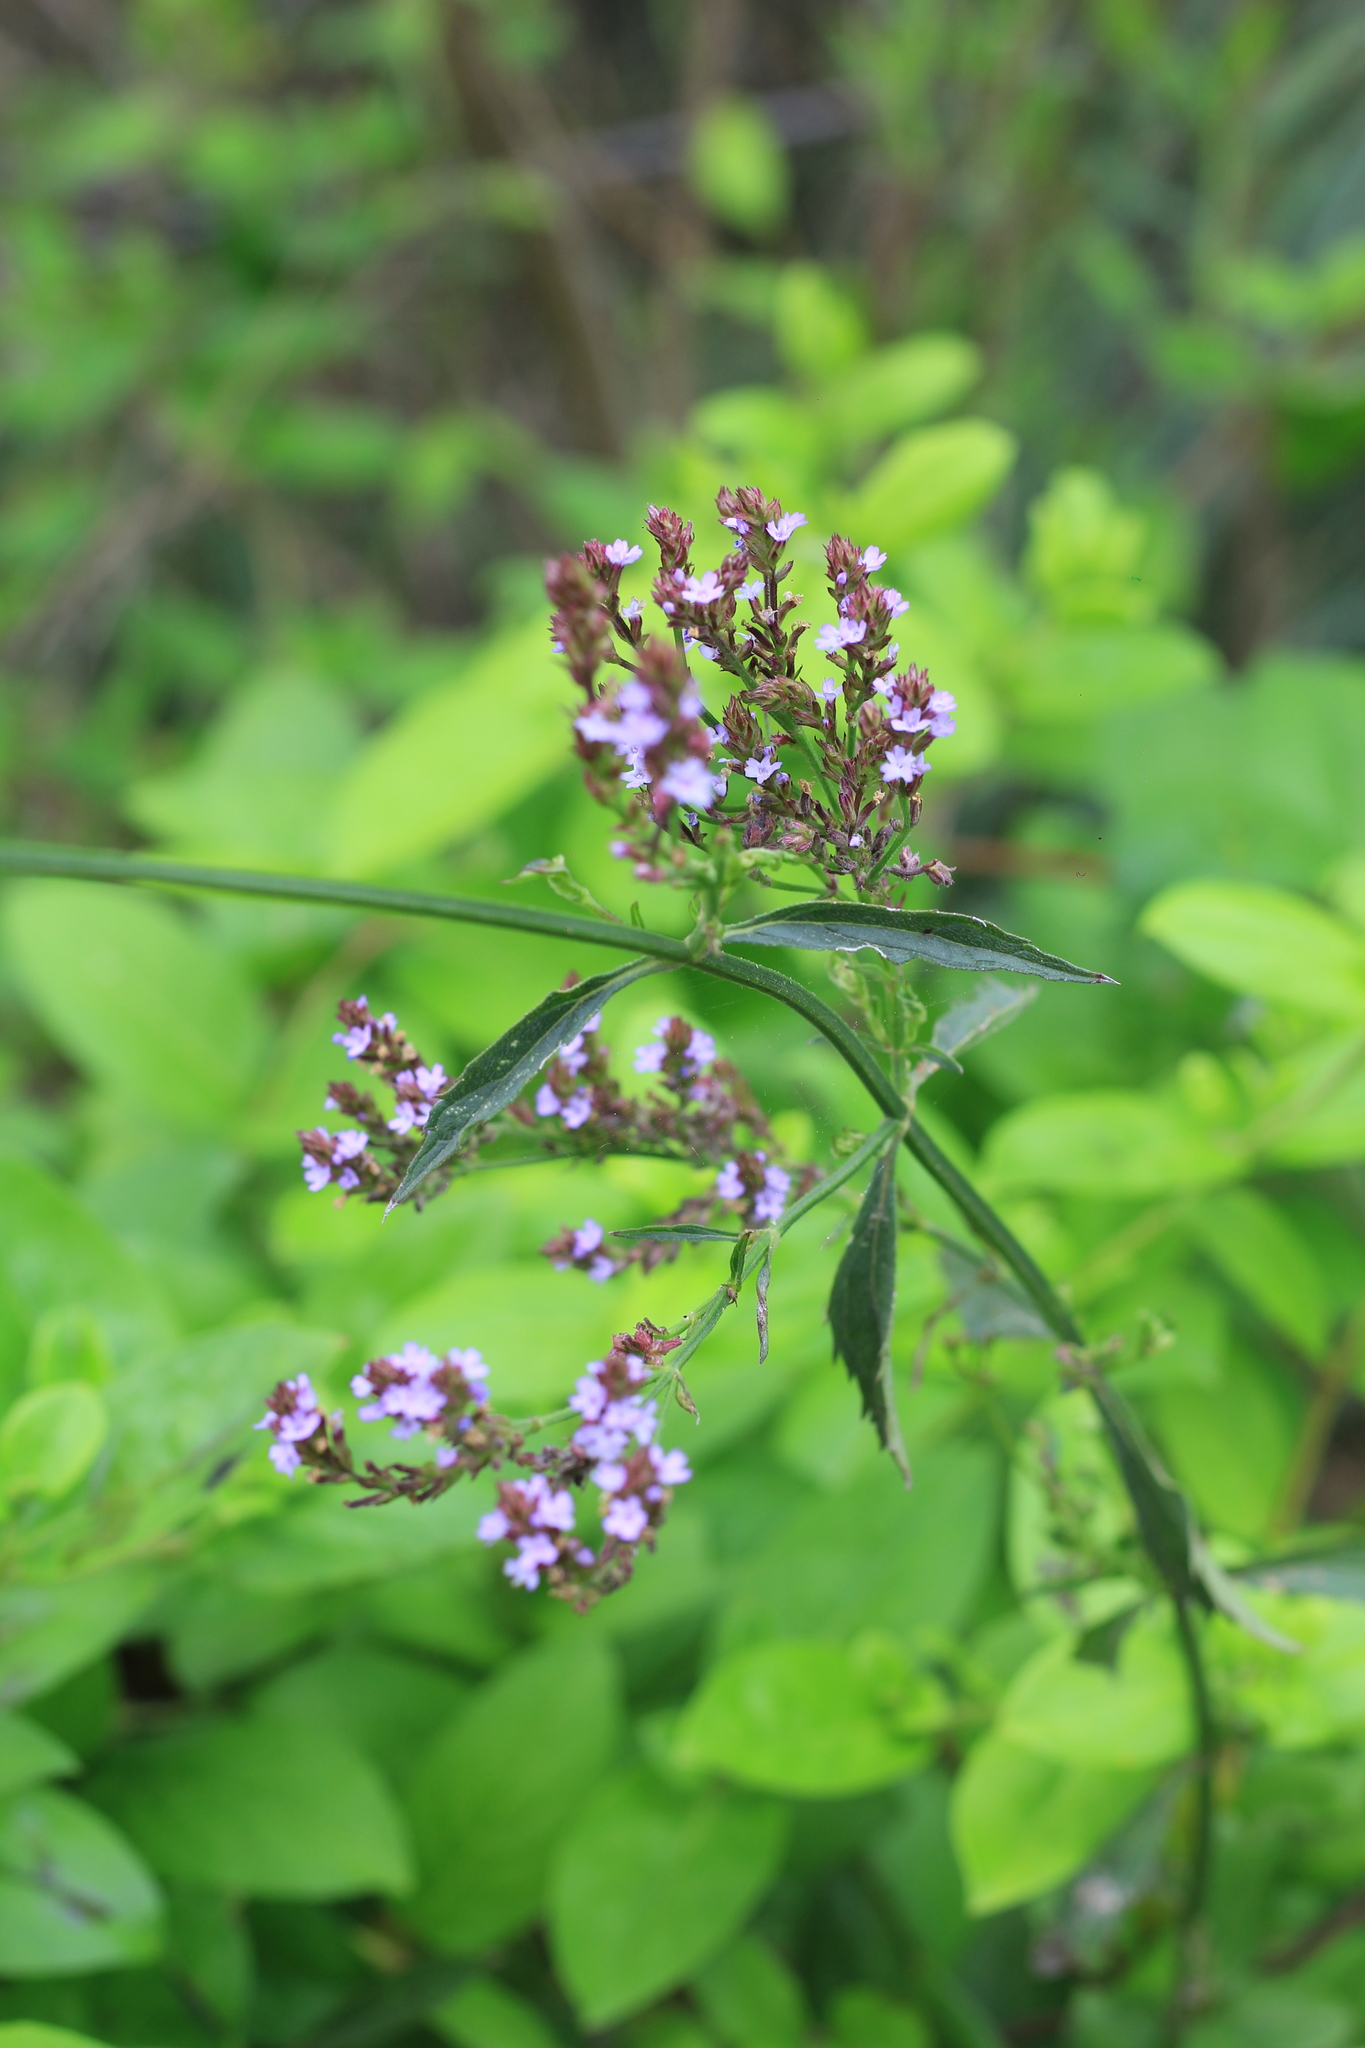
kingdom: Plantae
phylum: Tracheophyta
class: Magnoliopsida
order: Lamiales
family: Verbenaceae
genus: Verbena
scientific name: Verbena bonariensis
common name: Purpletop vervain
